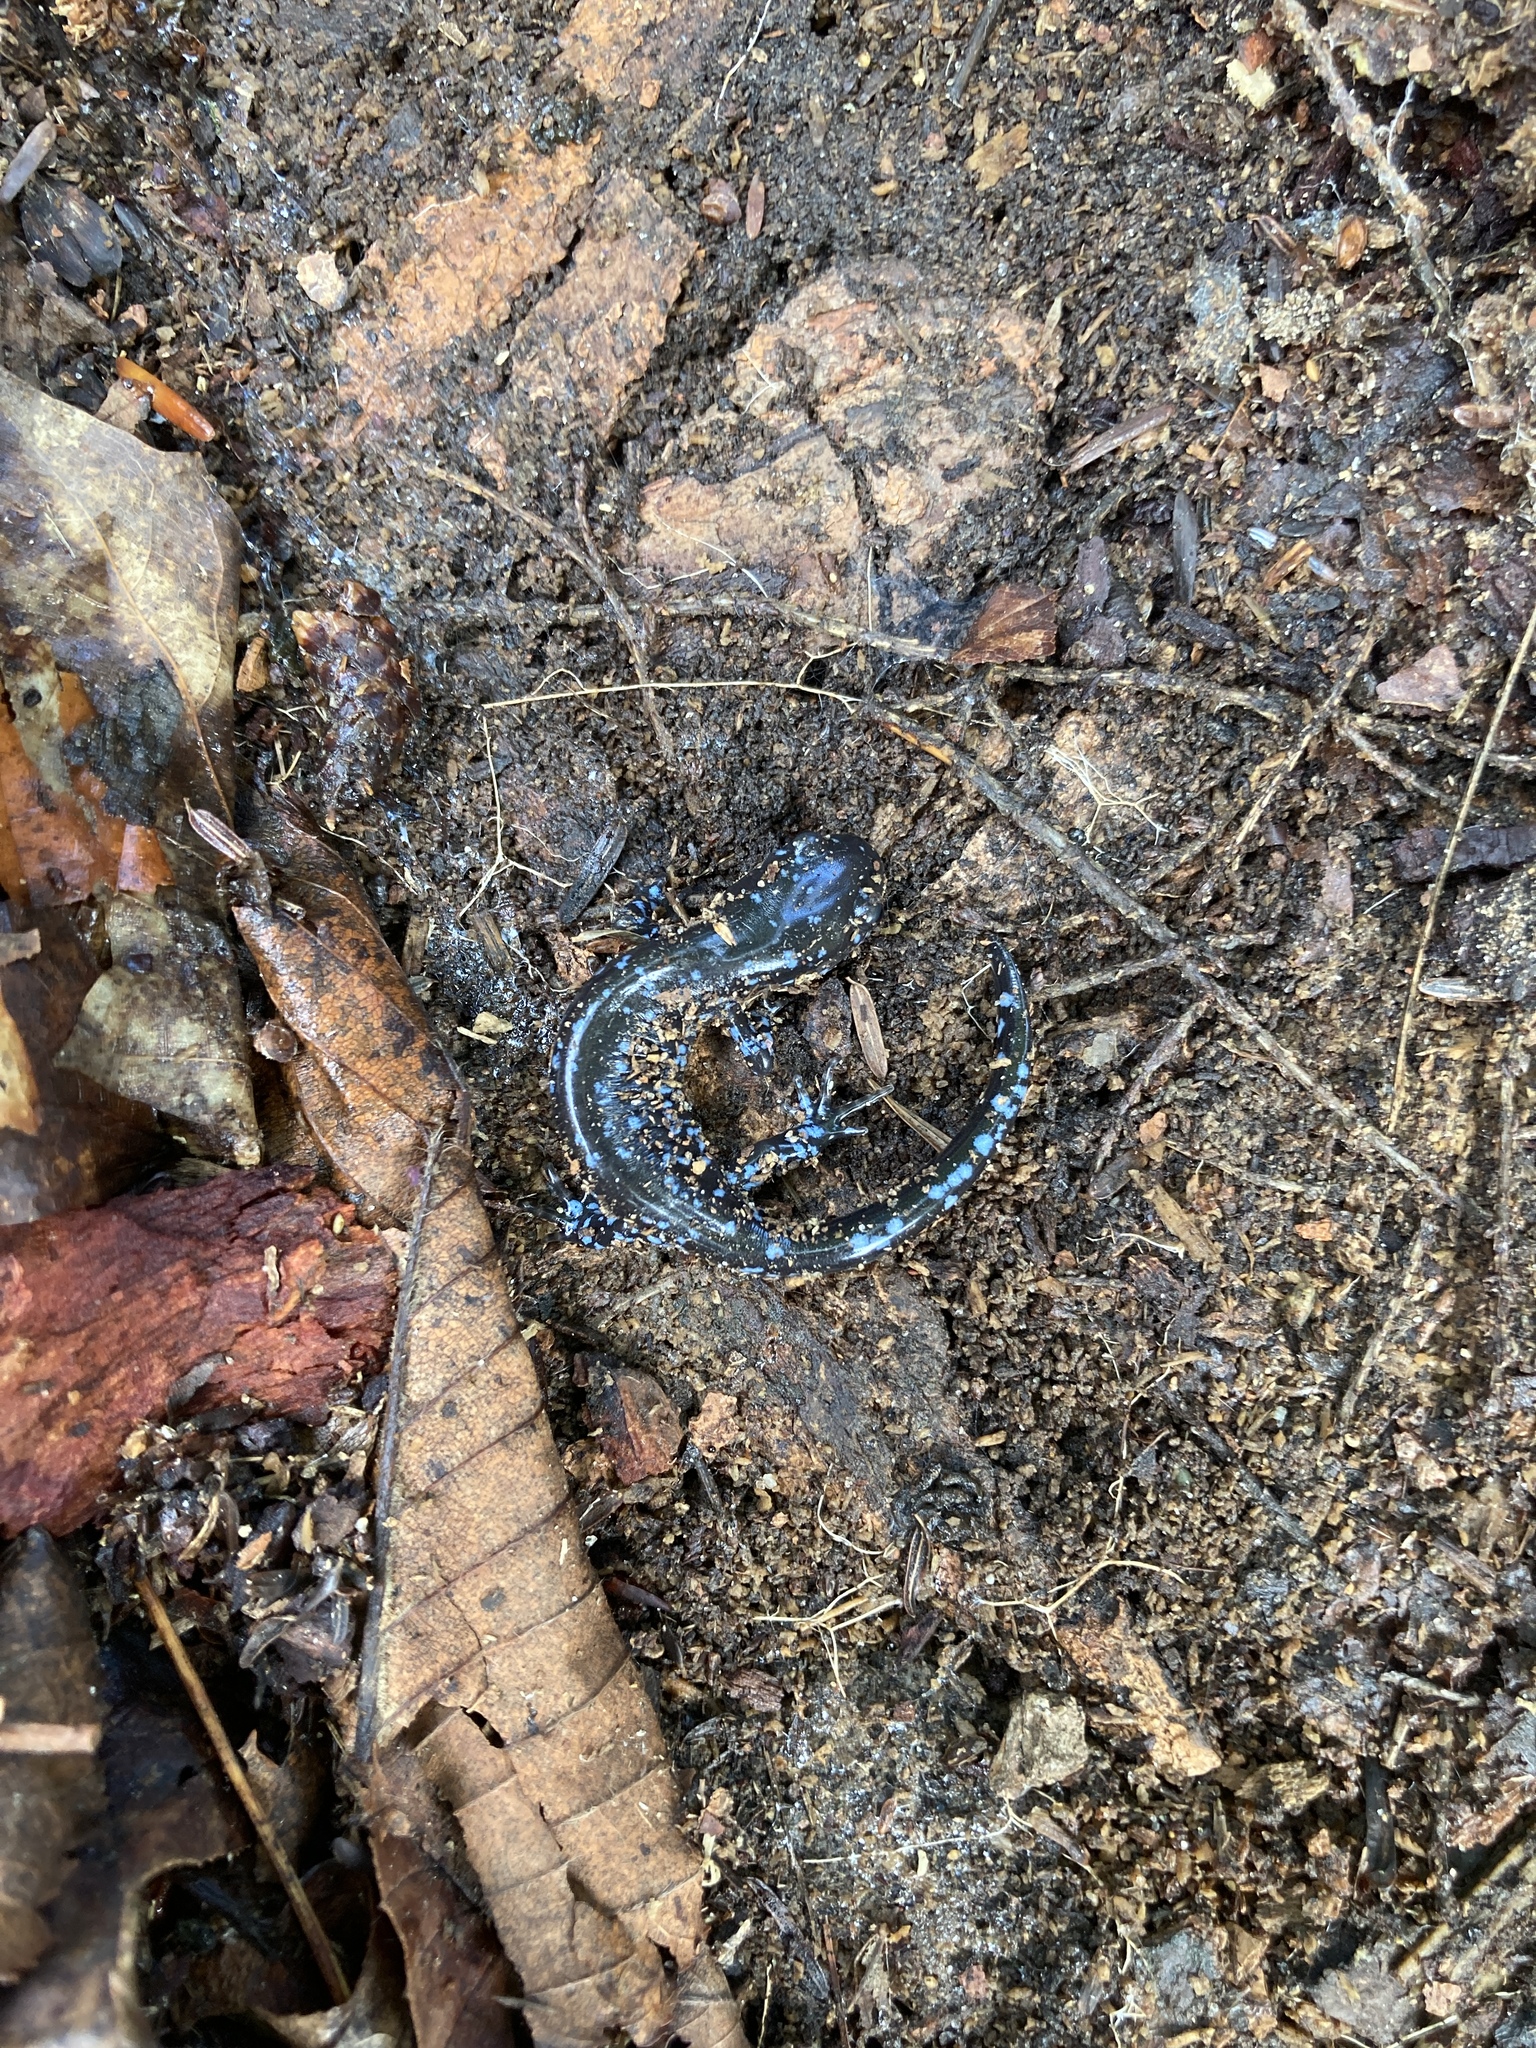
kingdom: Animalia
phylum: Chordata
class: Amphibia
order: Caudata
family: Ambystomatidae
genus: Ambystoma
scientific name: Ambystoma laterale
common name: Blue-spotted salamander
